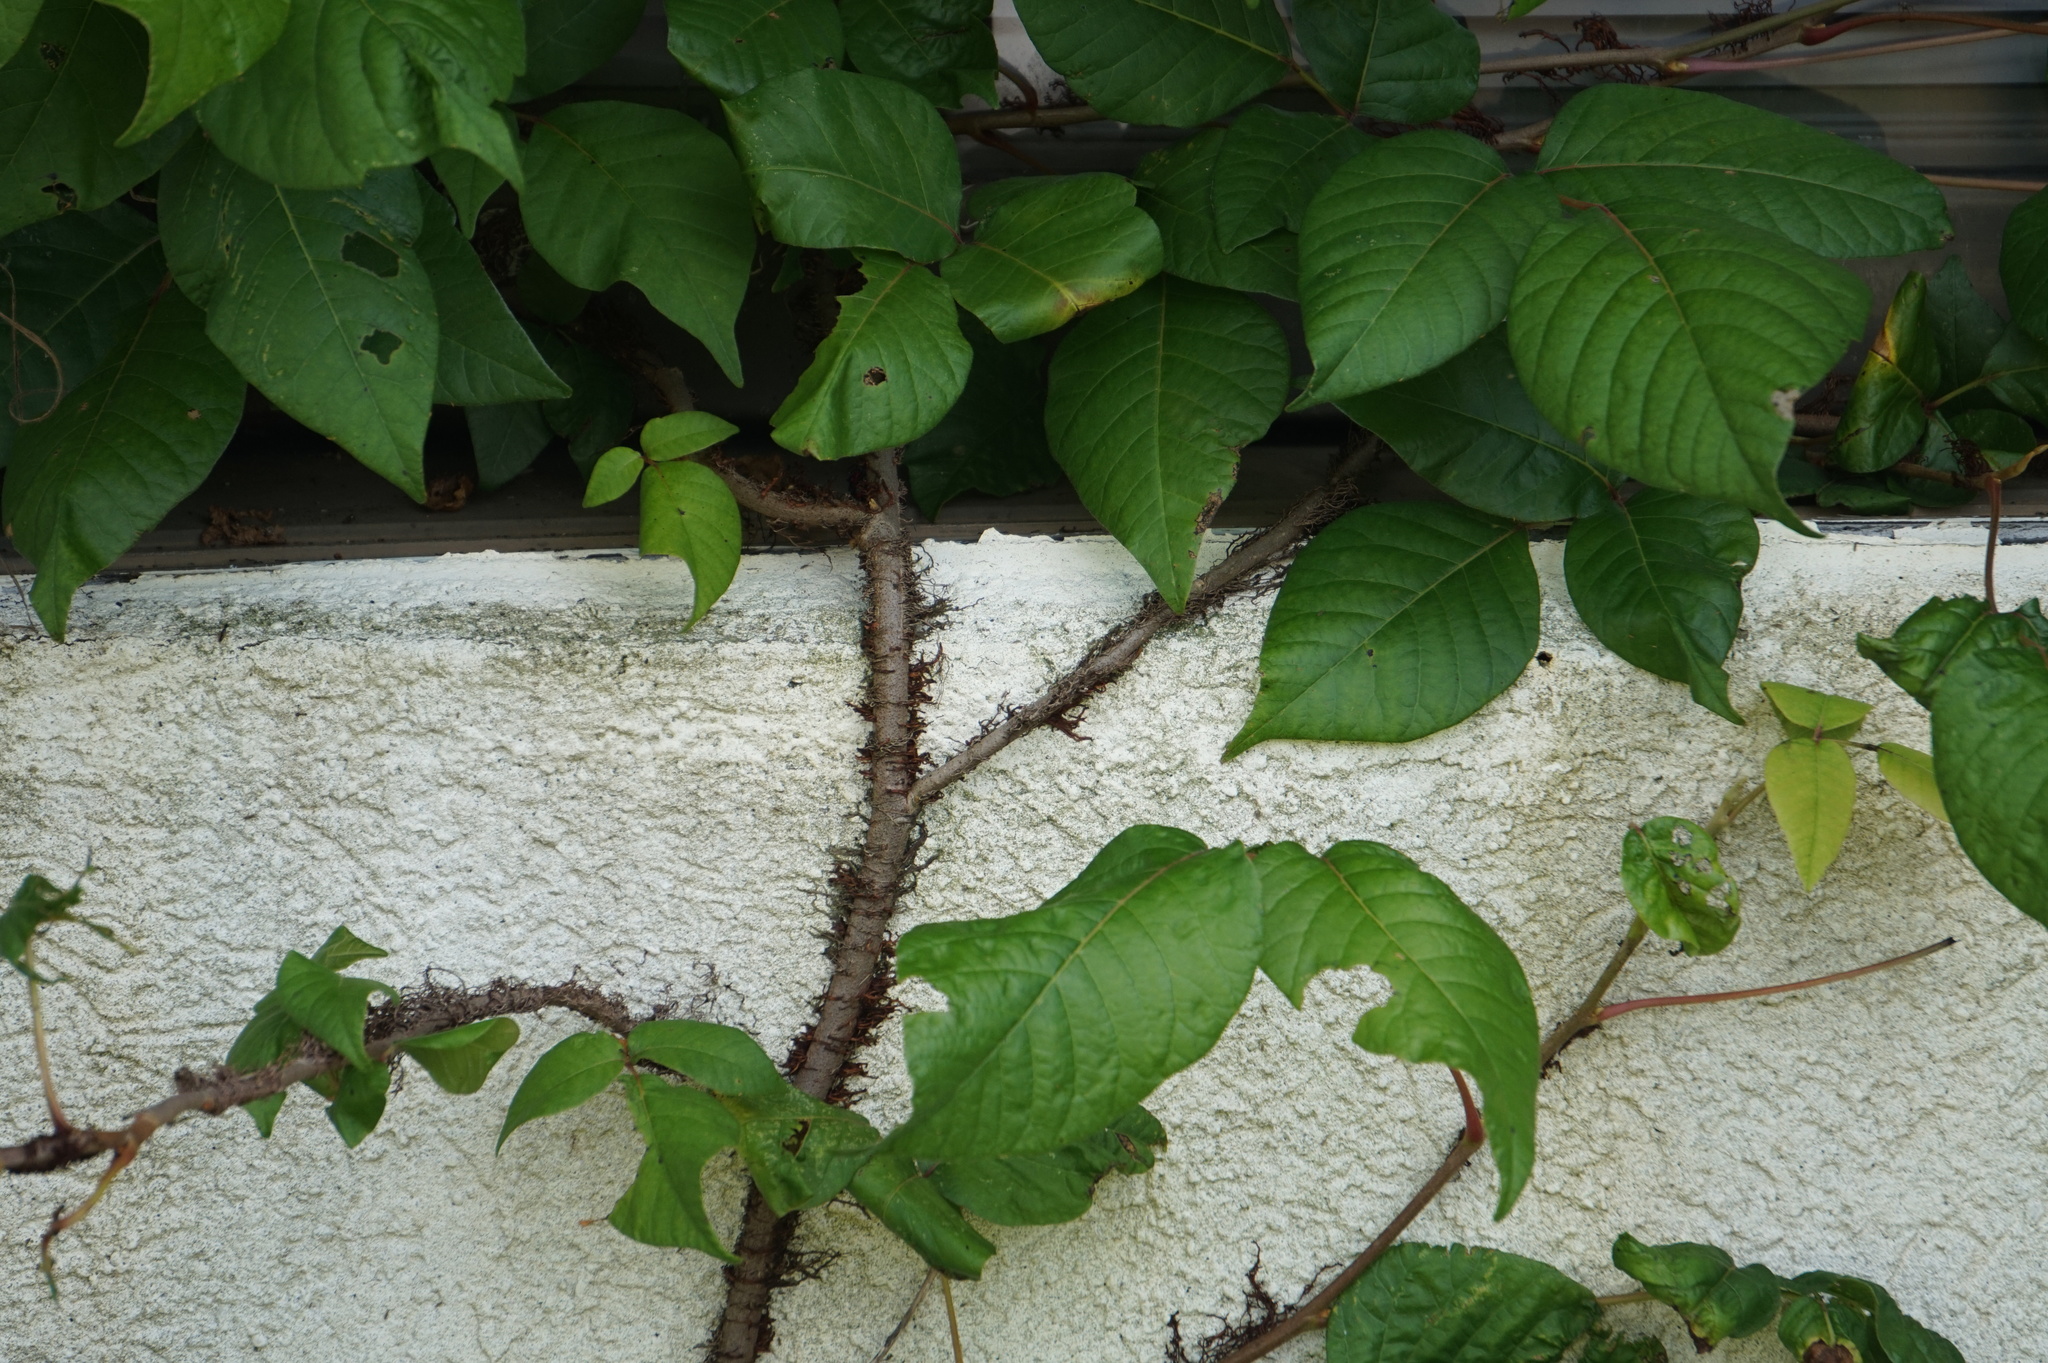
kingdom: Plantae
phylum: Tracheophyta
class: Magnoliopsida
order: Sapindales
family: Anacardiaceae
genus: Toxicodendron
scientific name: Toxicodendron radicans
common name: Poison ivy
